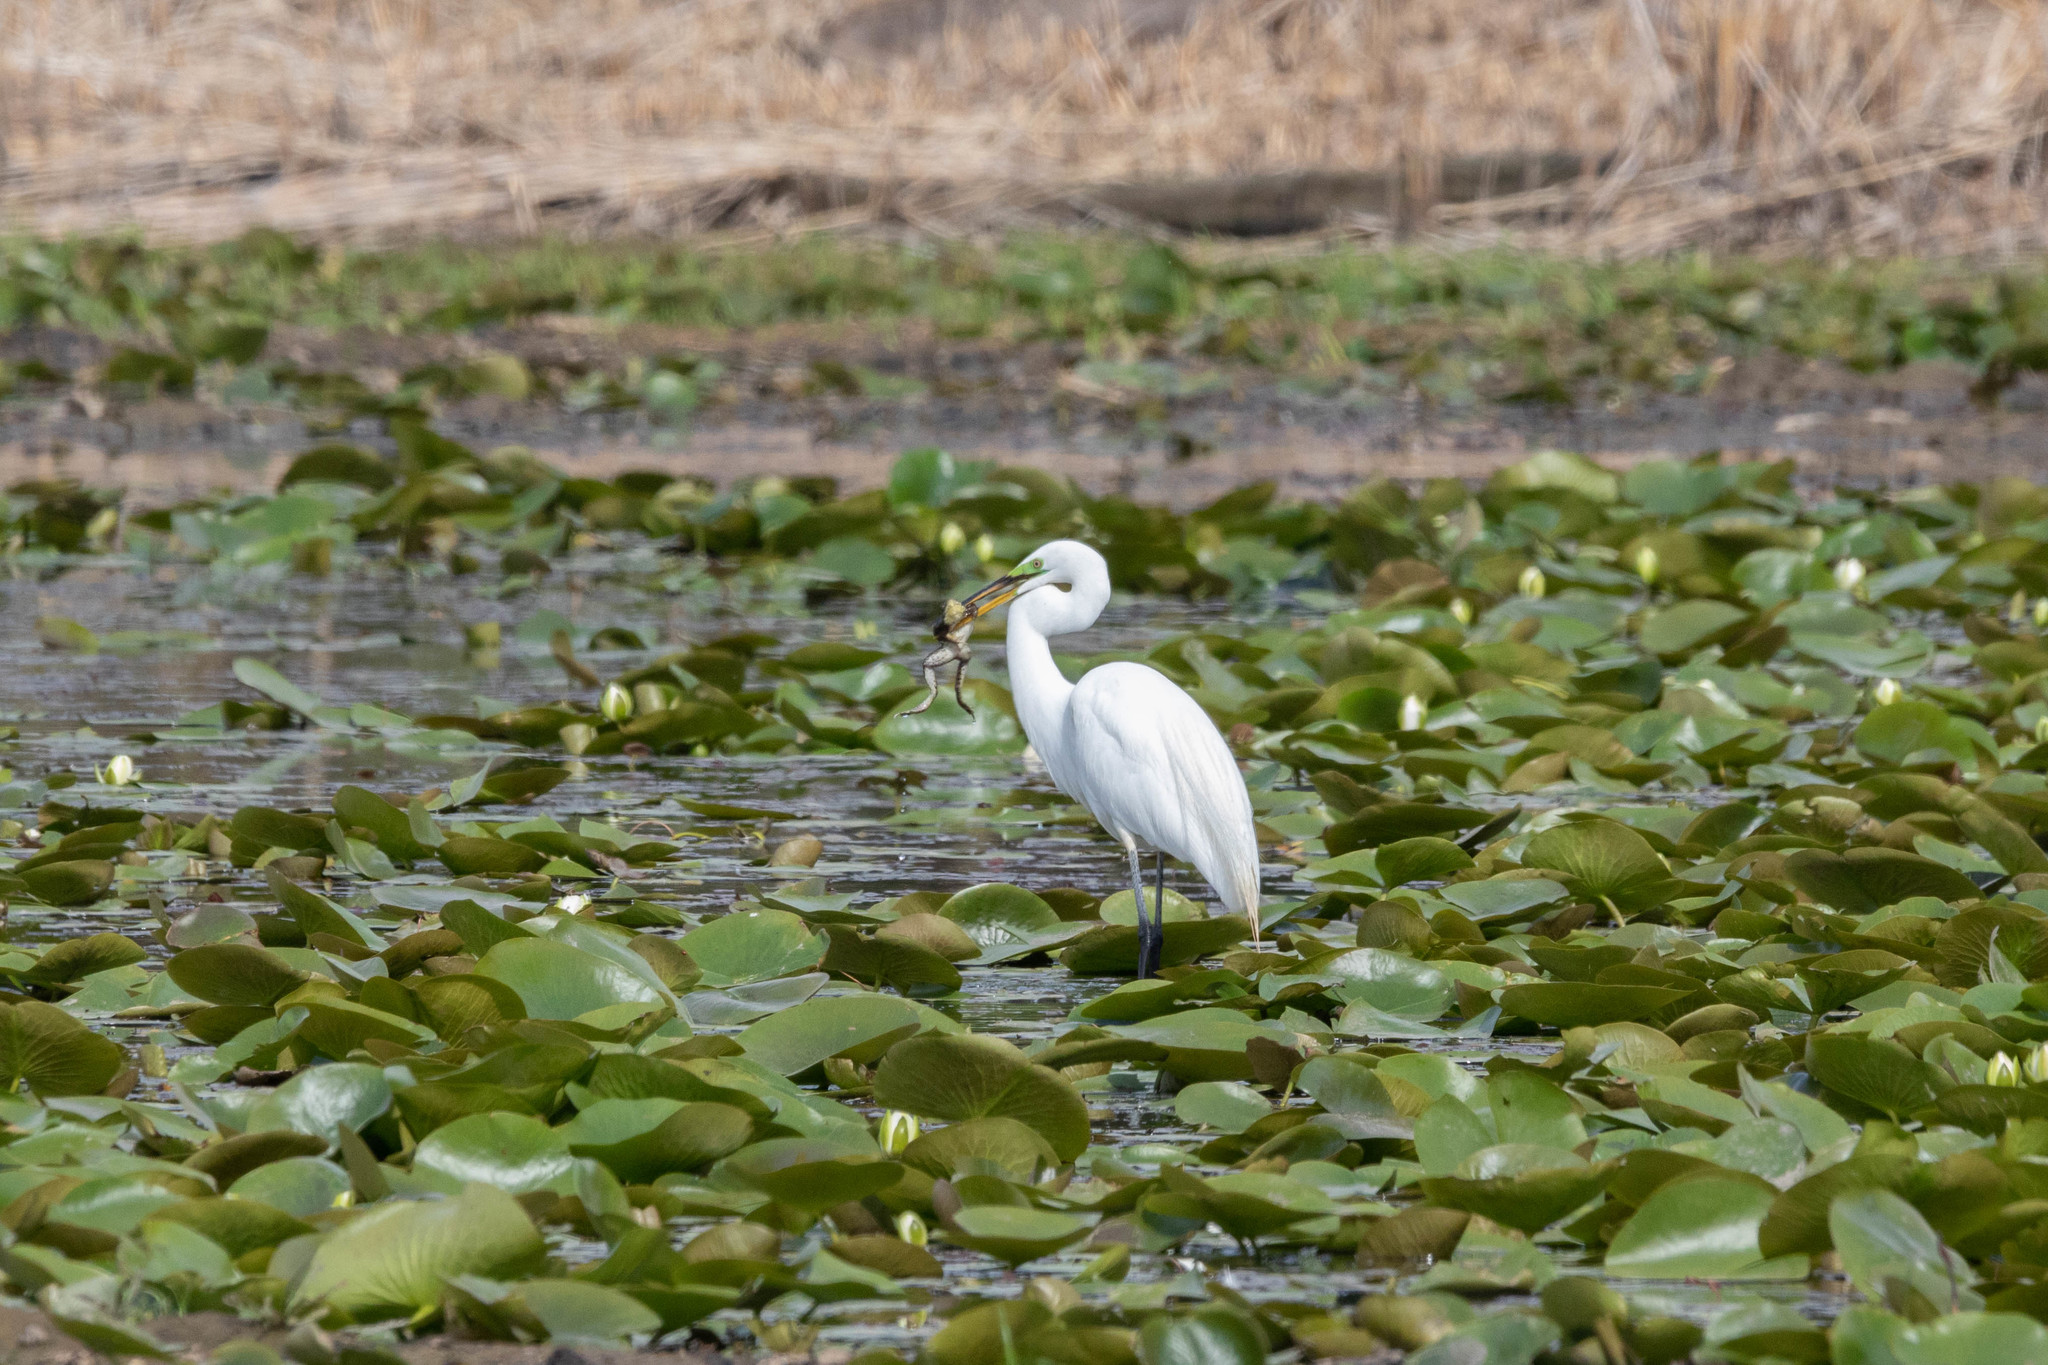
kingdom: Animalia
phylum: Chordata
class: Aves
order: Pelecaniformes
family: Ardeidae
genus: Ardea
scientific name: Ardea alba
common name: Great egret
